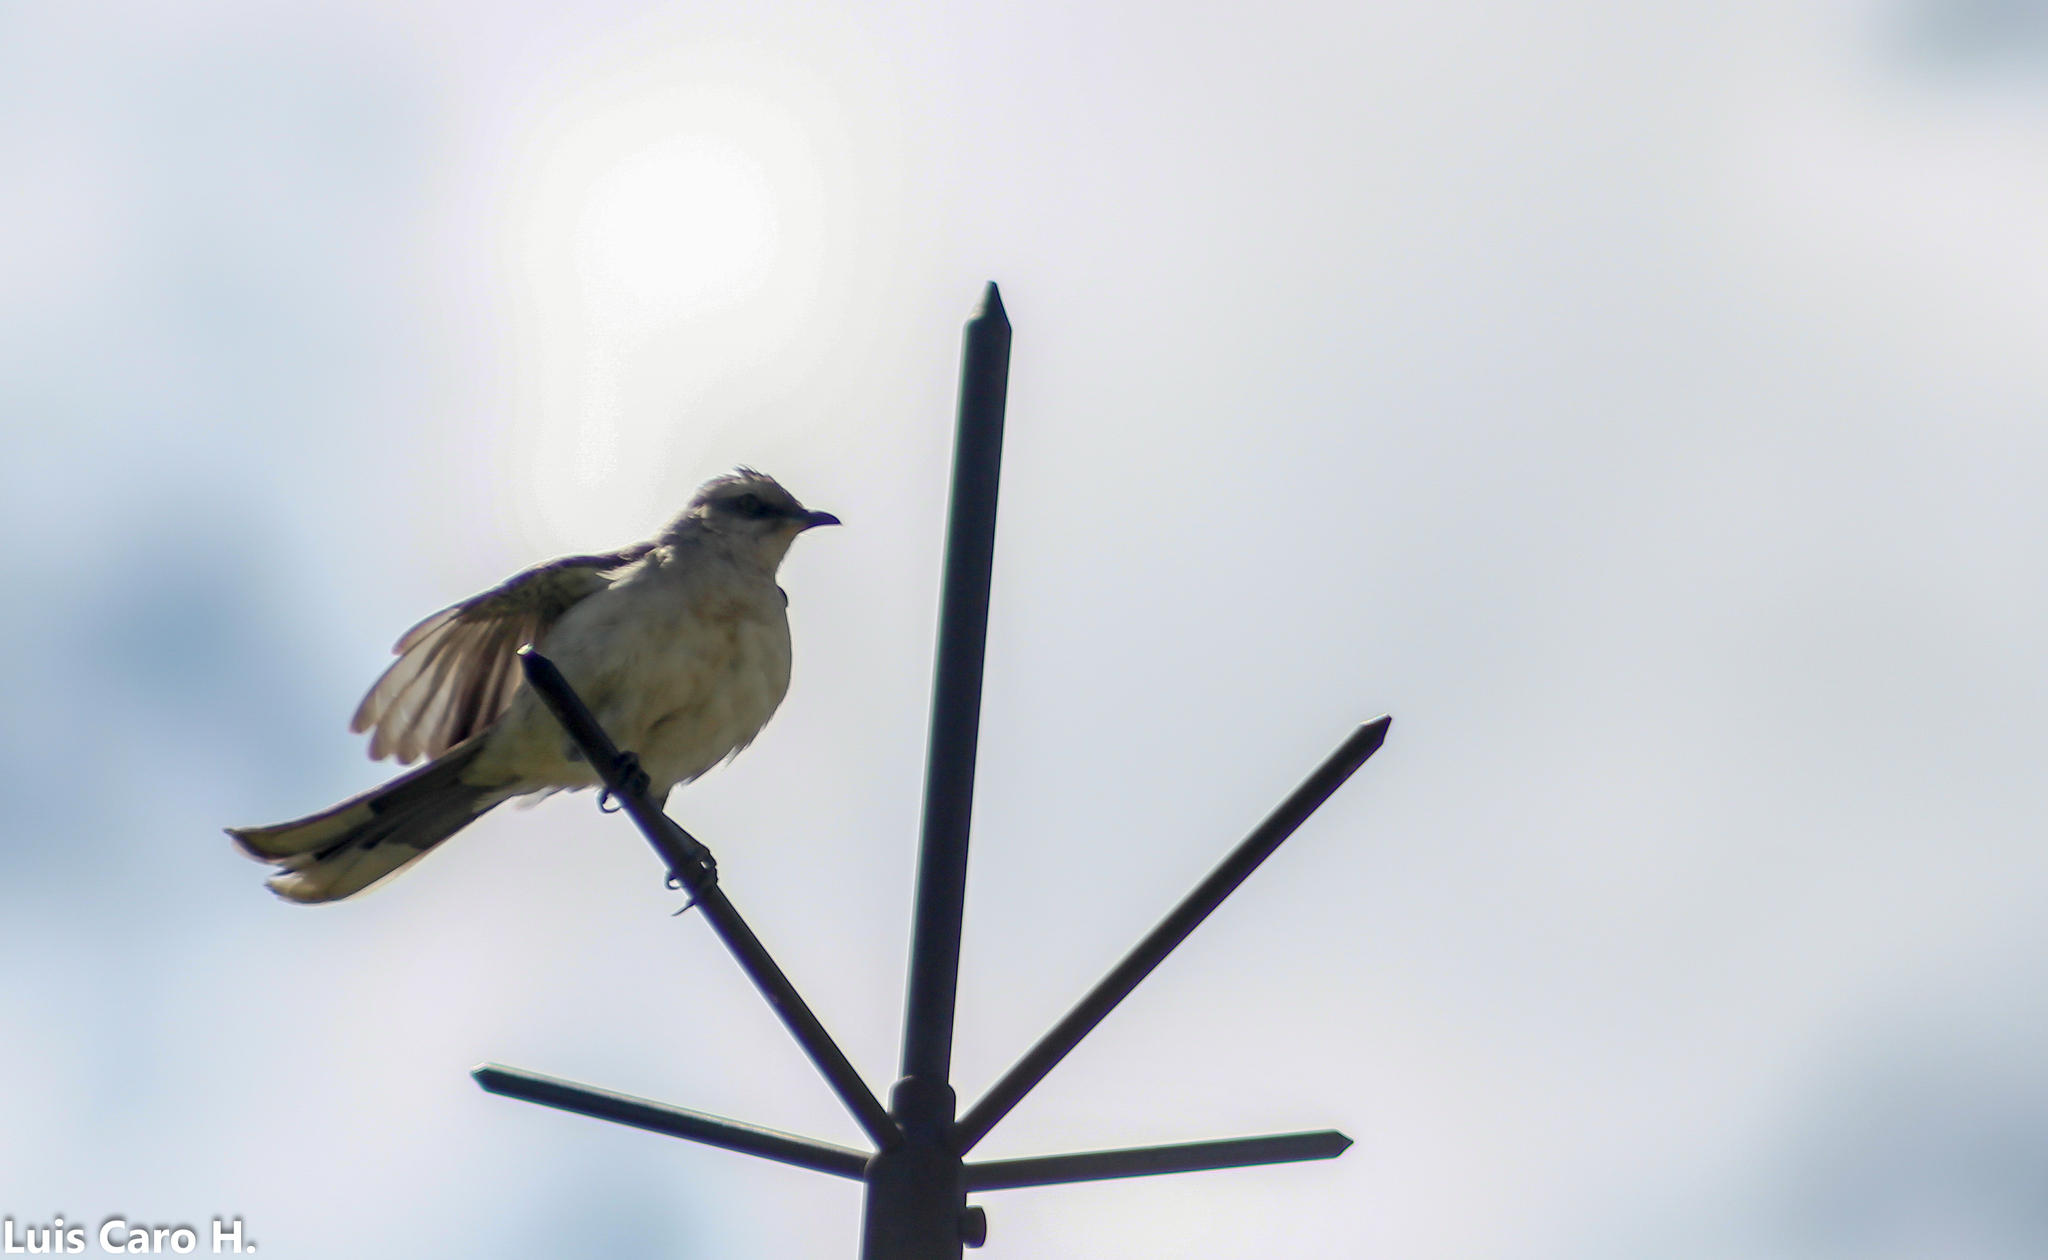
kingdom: Animalia
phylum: Chordata
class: Aves
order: Passeriformes
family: Mimidae
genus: Mimus
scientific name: Mimus gilvus
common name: Tropical mockingbird
